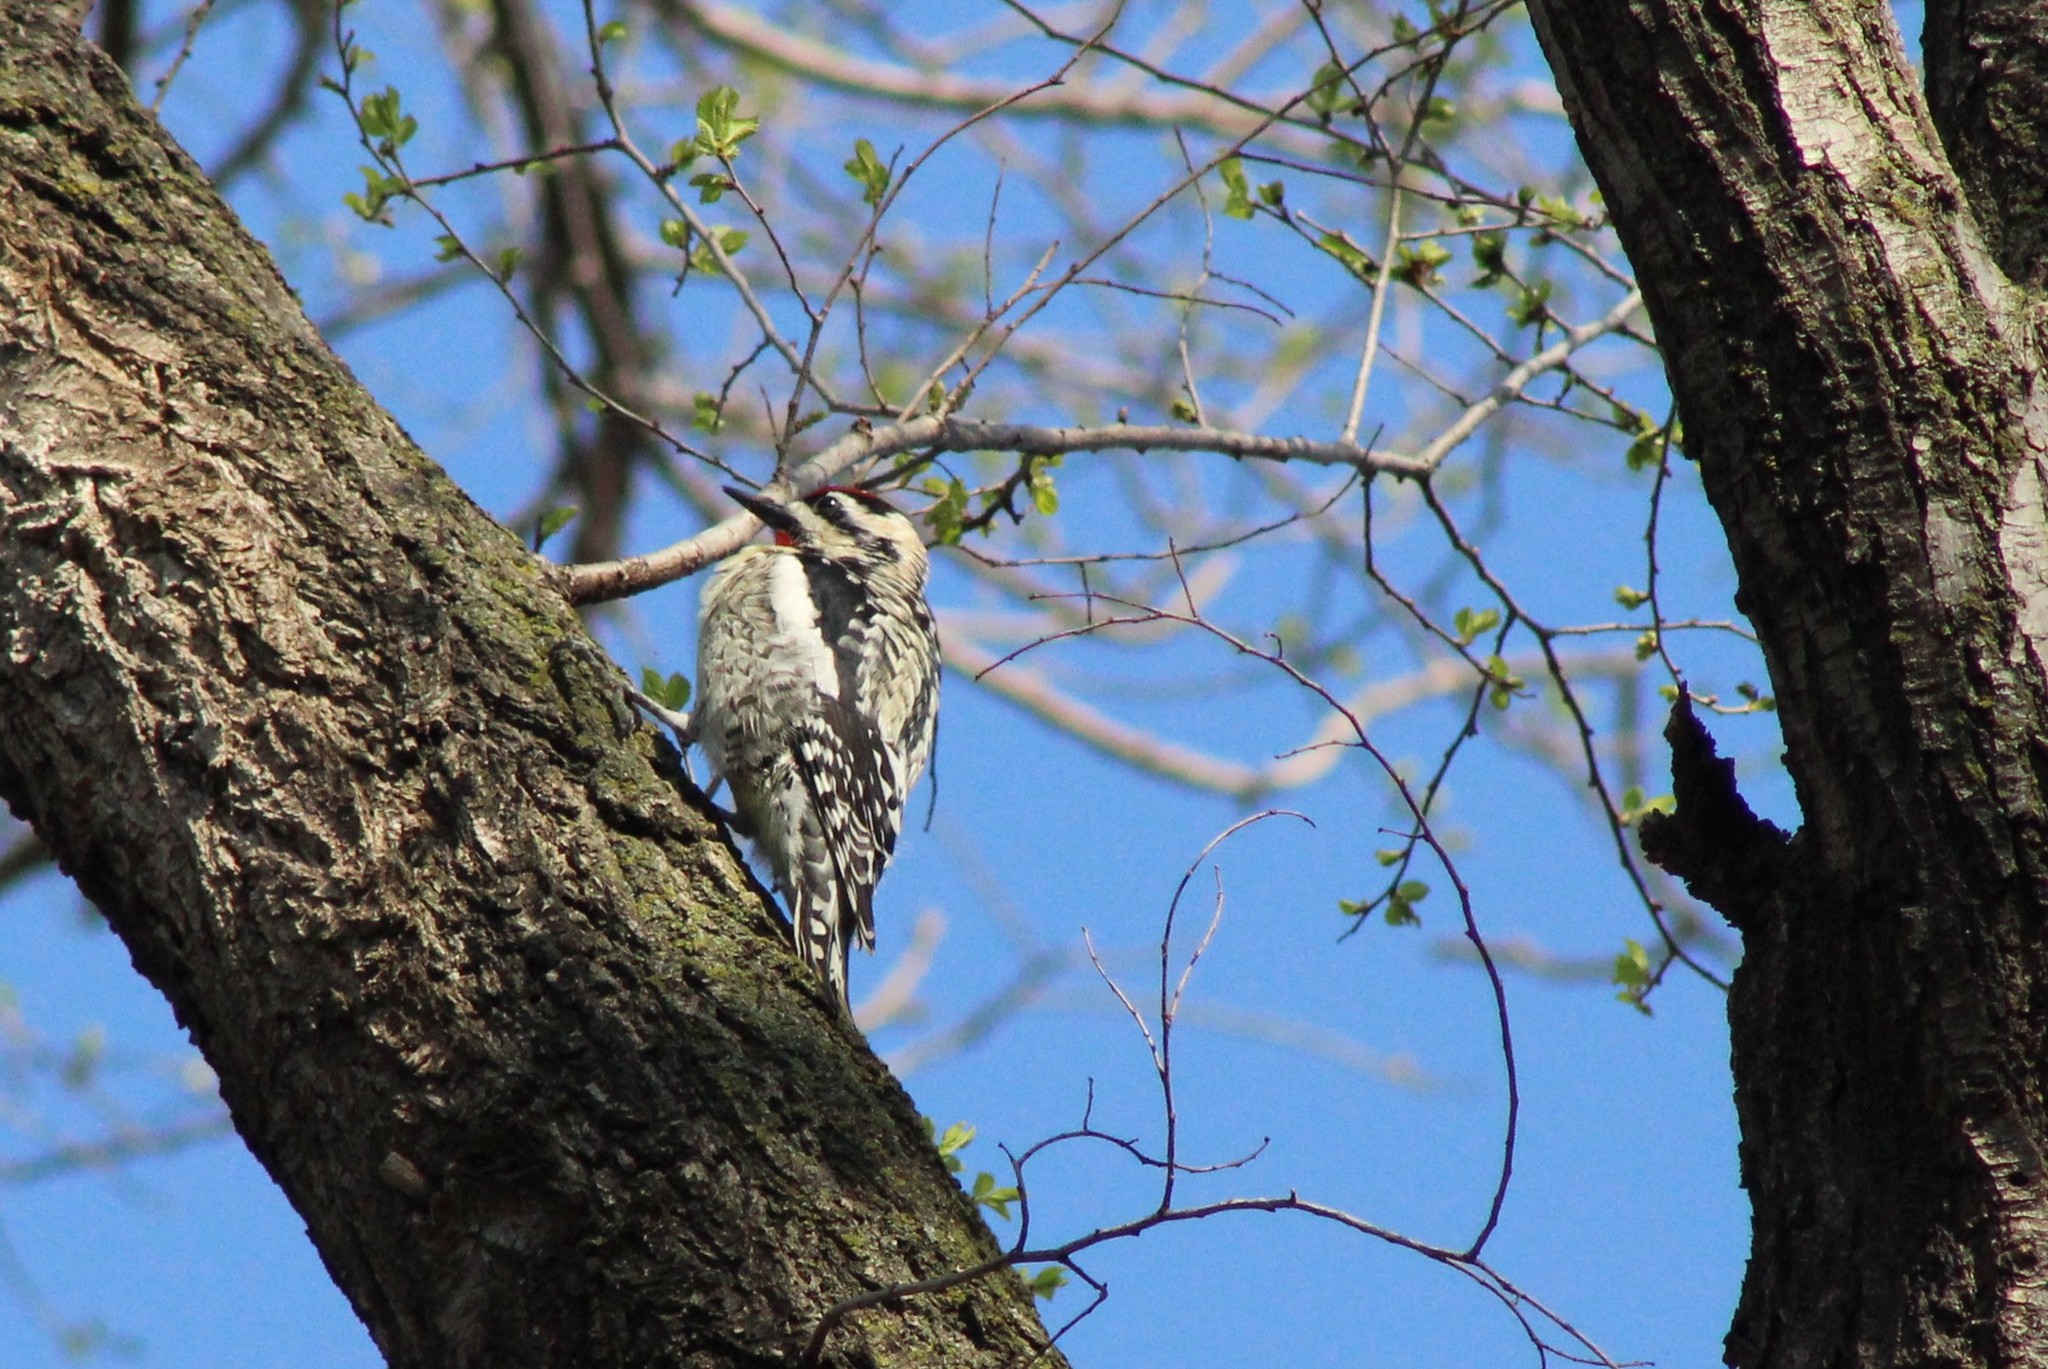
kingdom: Animalia
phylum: Chordata
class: Aves
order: Piciformes
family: Picidae
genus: Sphyrapicus
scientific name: Sphyrapicus varius
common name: Yellow-bellied sapsucker
